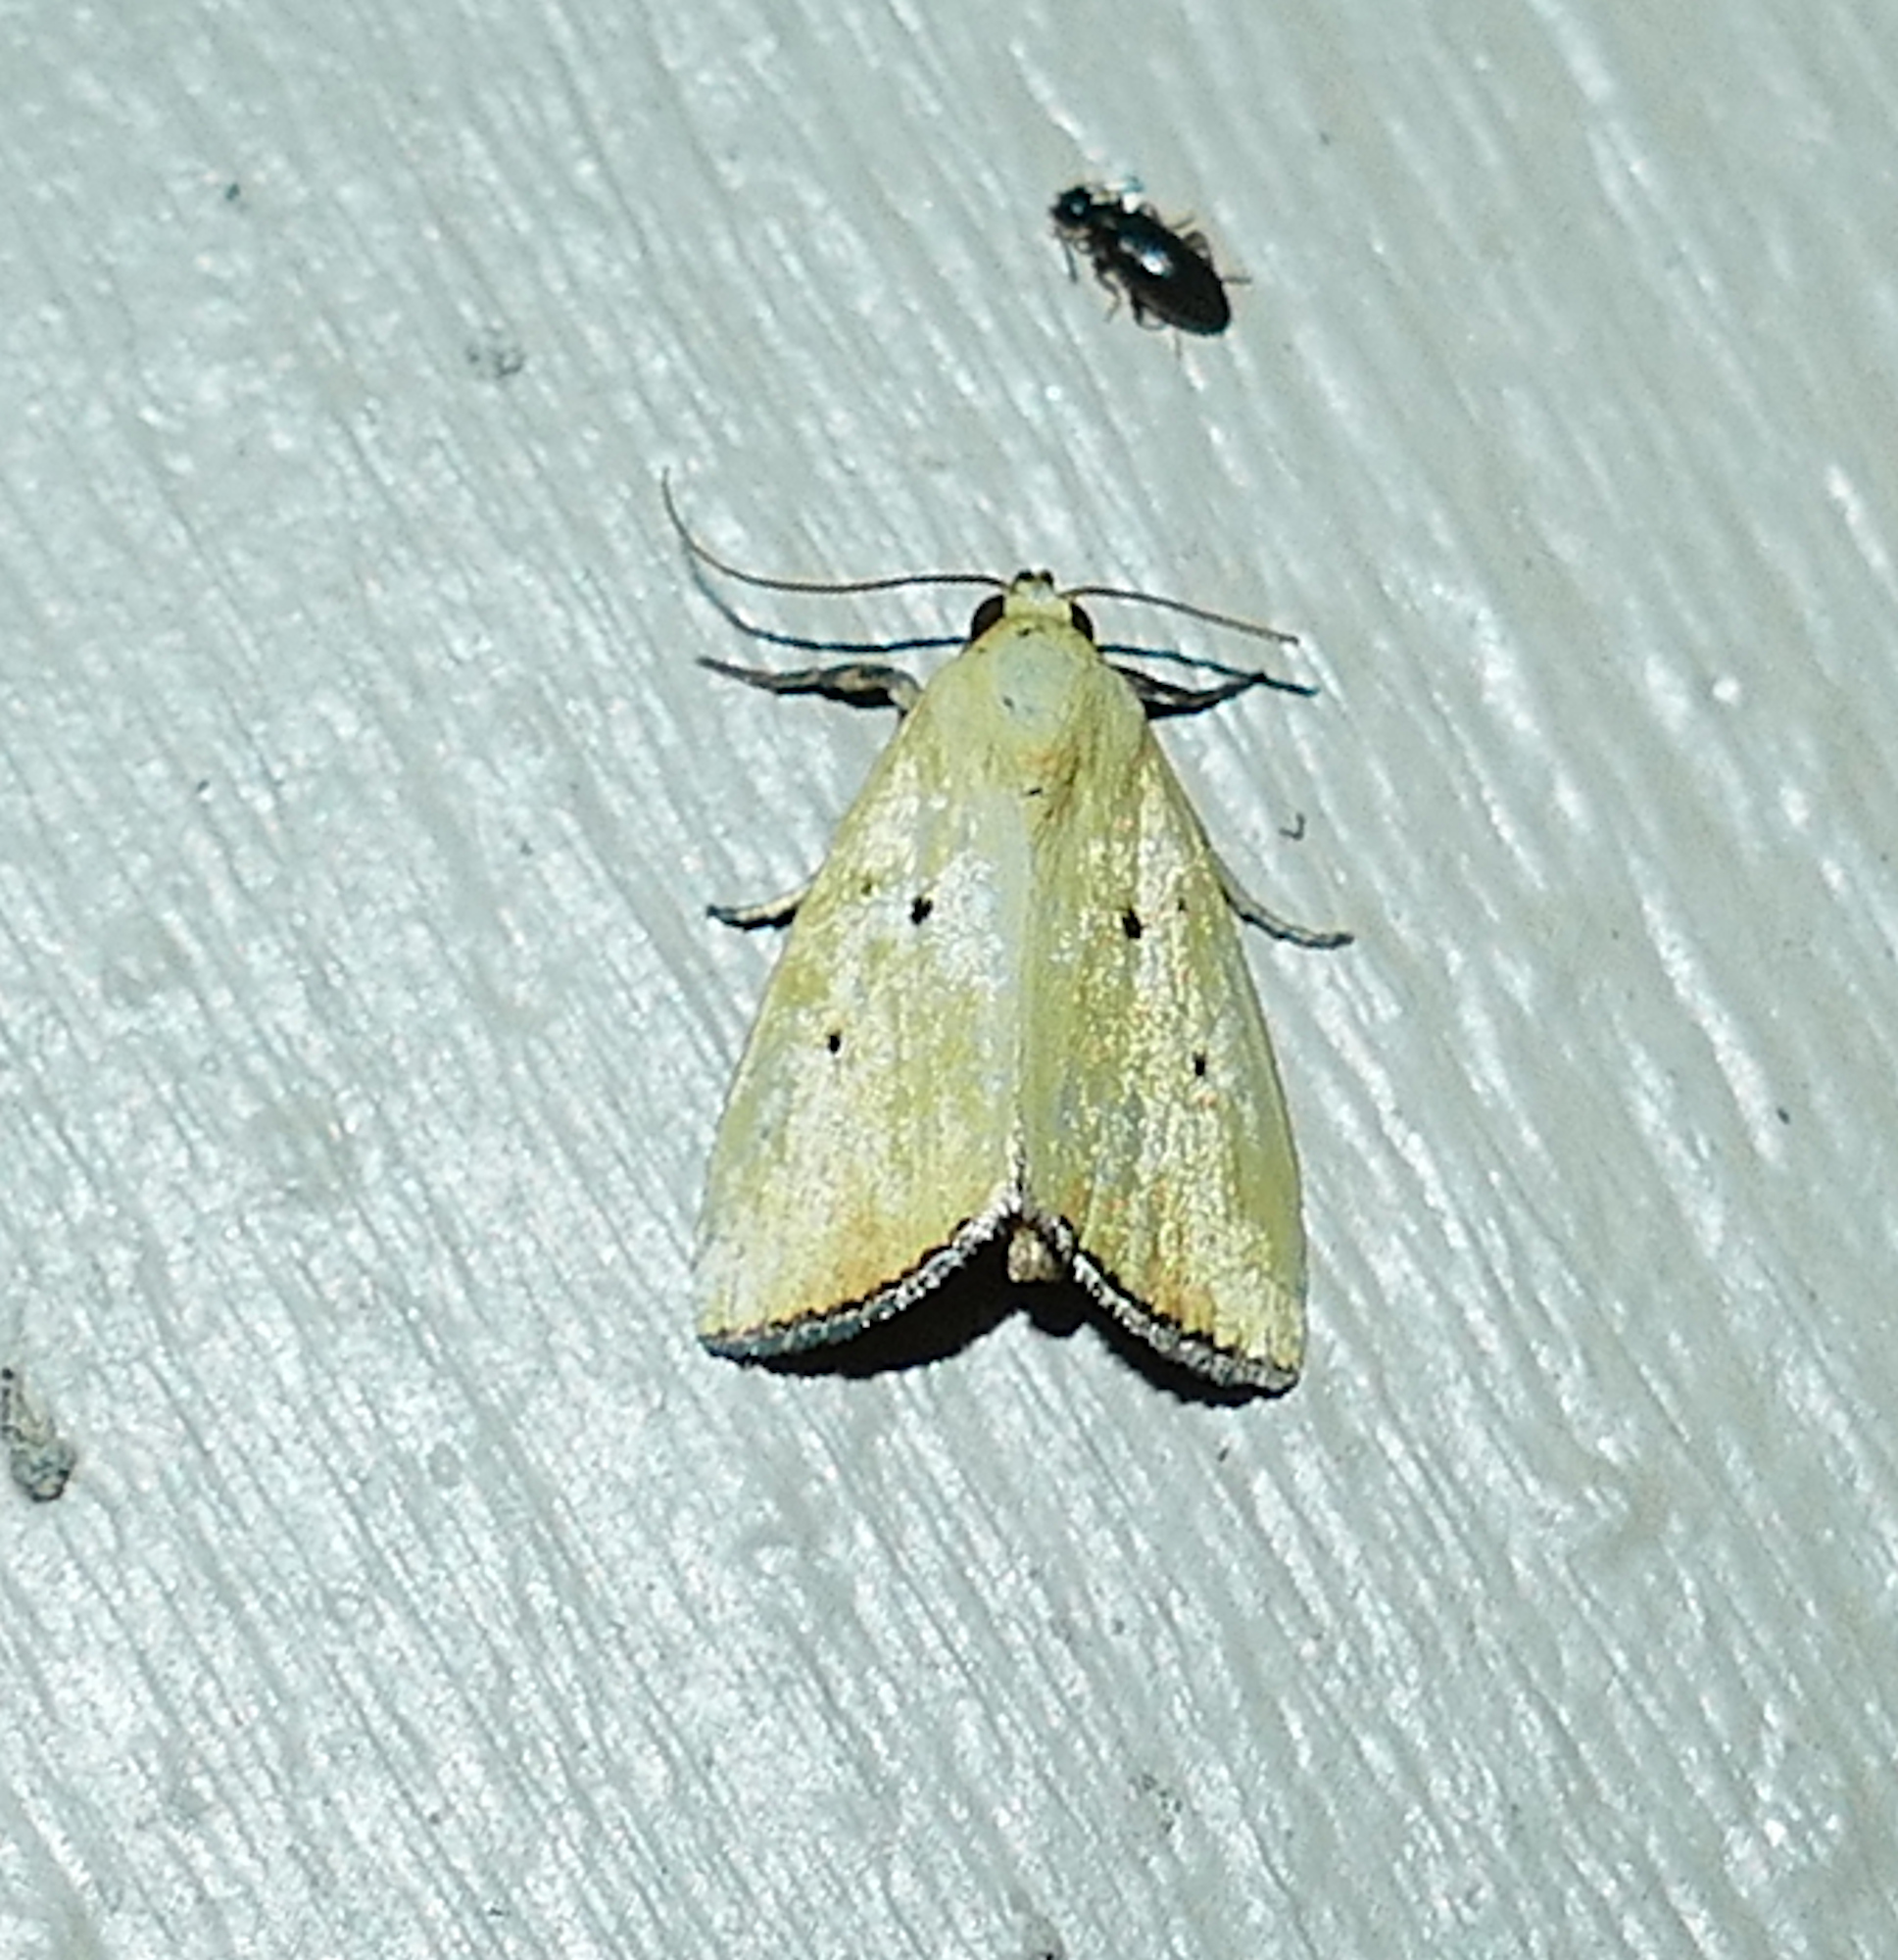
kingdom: Animalia
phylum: Arthropoda
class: Insecta
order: Lepidoptera
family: Noctuidae
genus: Marimatha
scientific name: Marimatha nigrofimbria
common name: Black-bordered lemon moth
